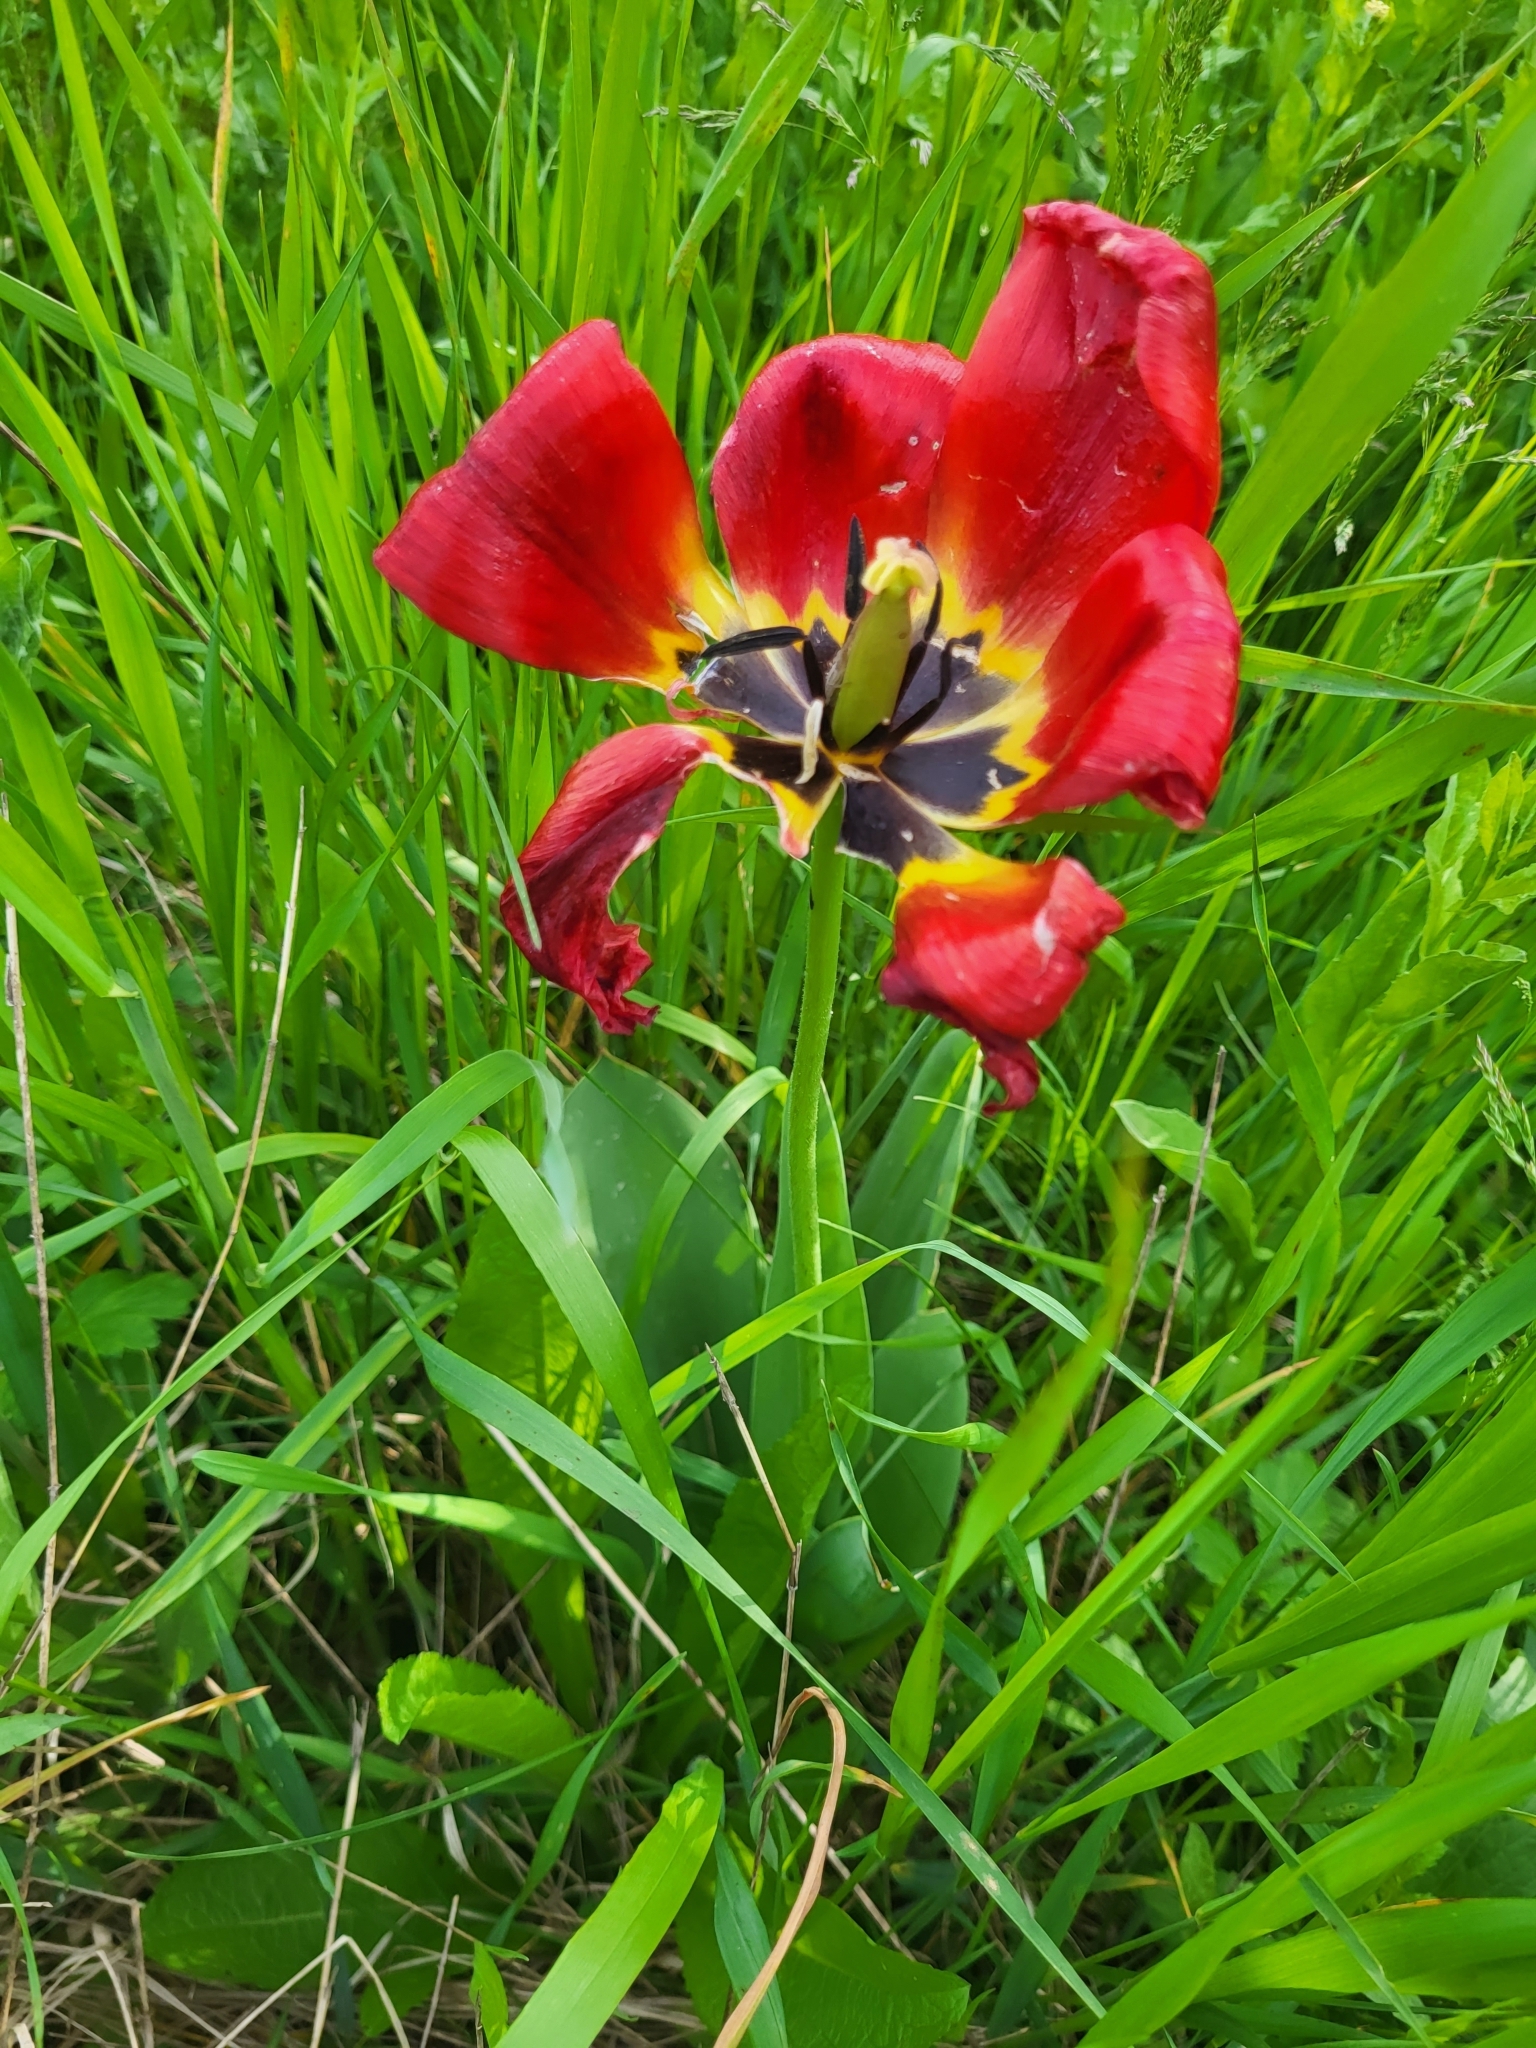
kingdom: Plantae
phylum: Tracheophyta
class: Liliopsida
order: Liliales
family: Liliaceae
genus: Tulipa
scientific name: Tulipa gesneriana
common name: Garden tulip
